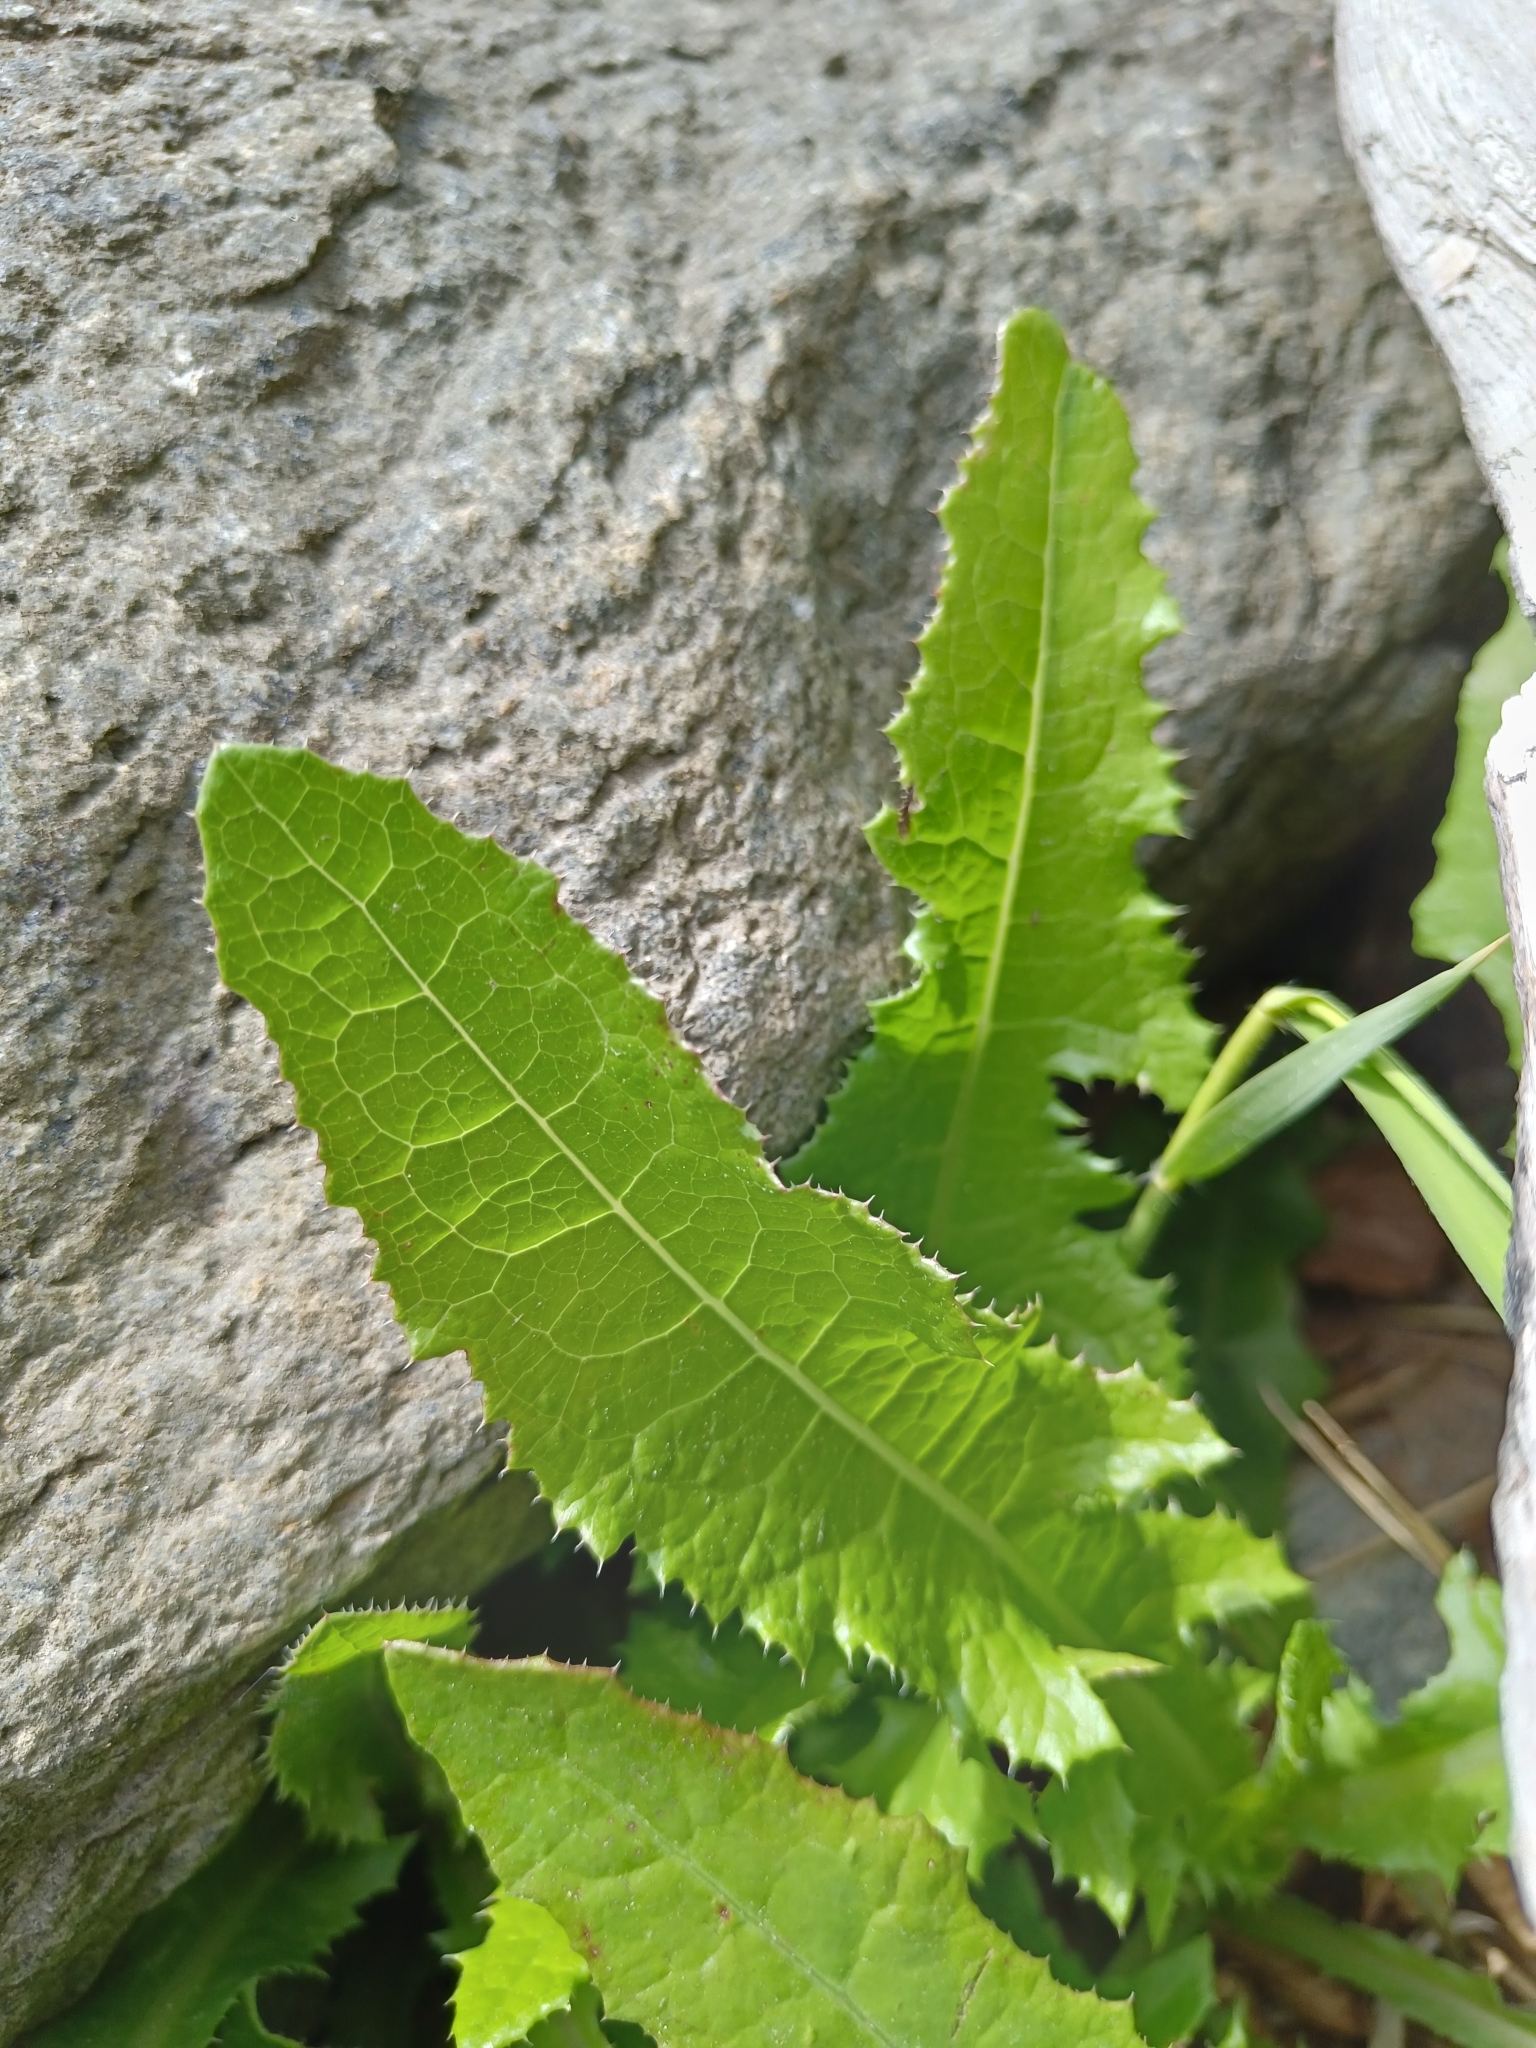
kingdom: Plantae
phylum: Tracheophyta
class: Magnoliopsida
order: Asterales
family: Asteraceae
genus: Sonchus
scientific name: Sonchus asper
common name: Prickly sow-thistle
